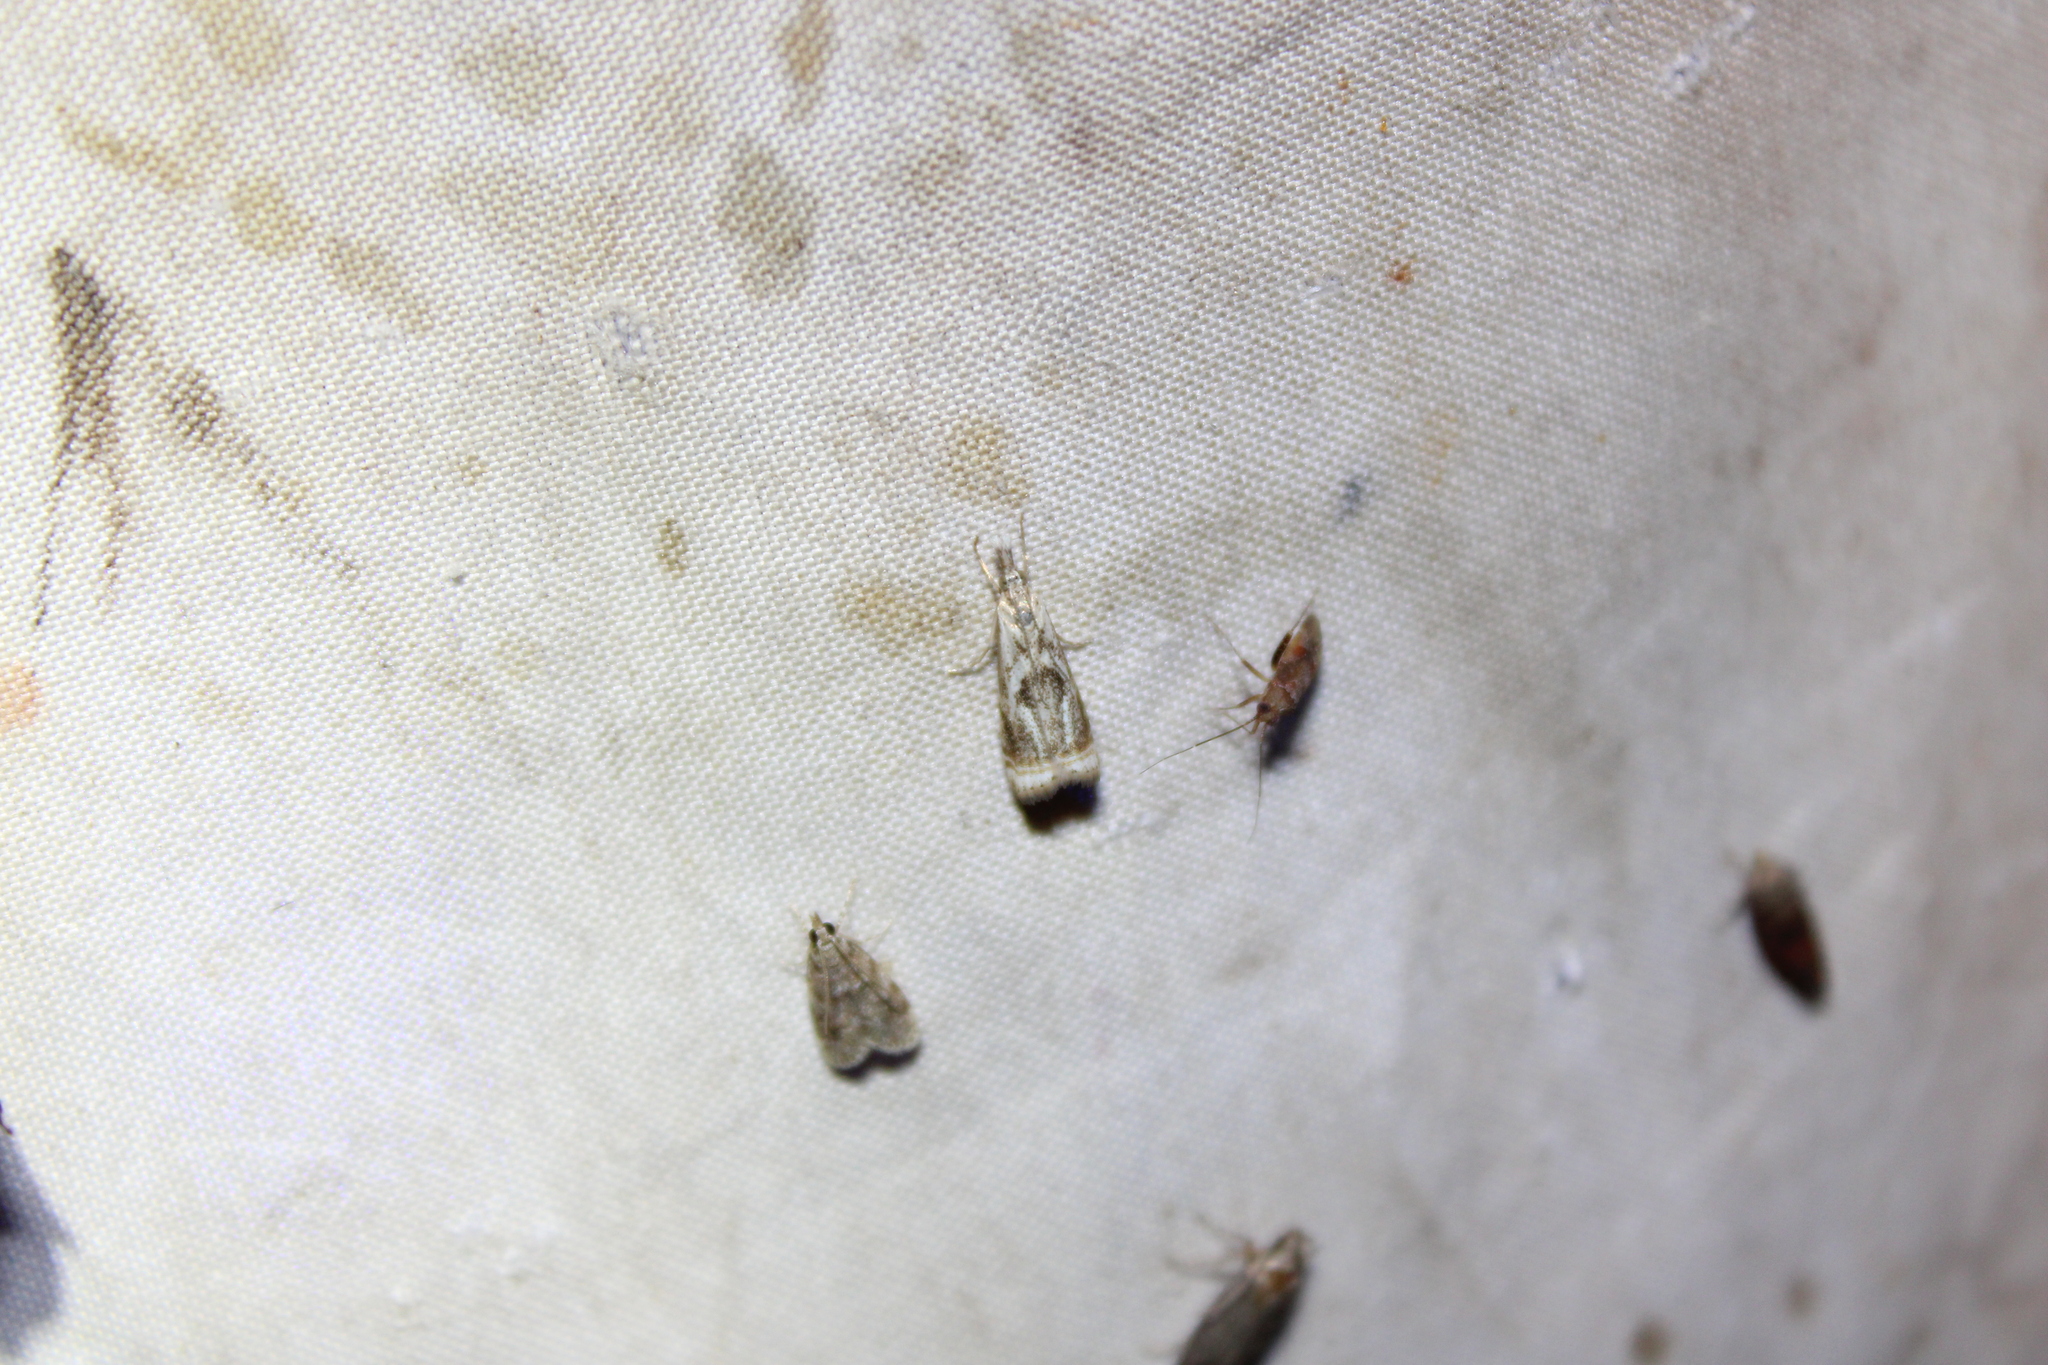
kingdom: Animalia
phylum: Arthropoda
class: Insecta
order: Lepidoptera
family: Crambidae
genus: Microcrambus
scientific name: Microcrambus elegans
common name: Elegant grass-veneer
